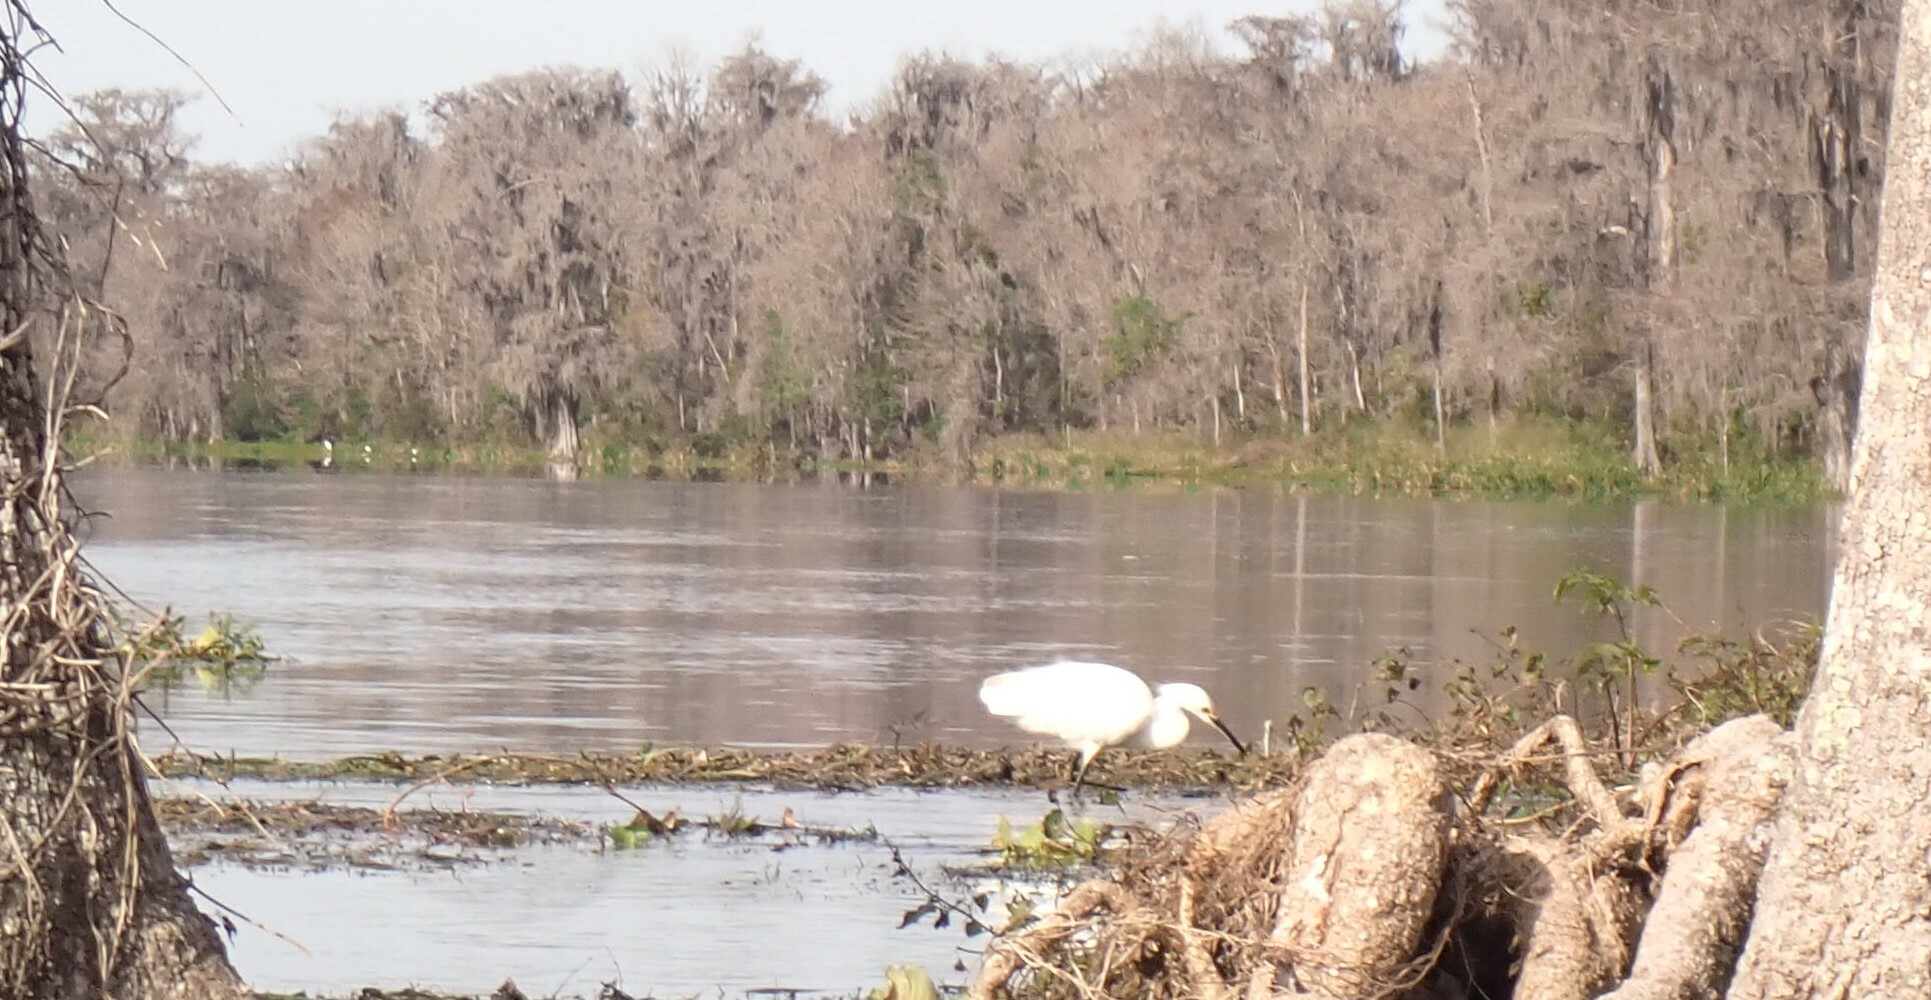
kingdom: Animalia
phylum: Chordata
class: Aves
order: Pelecaniformes
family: Ardeidae
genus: Egretta
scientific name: Egretta thula
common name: Snowy egret
